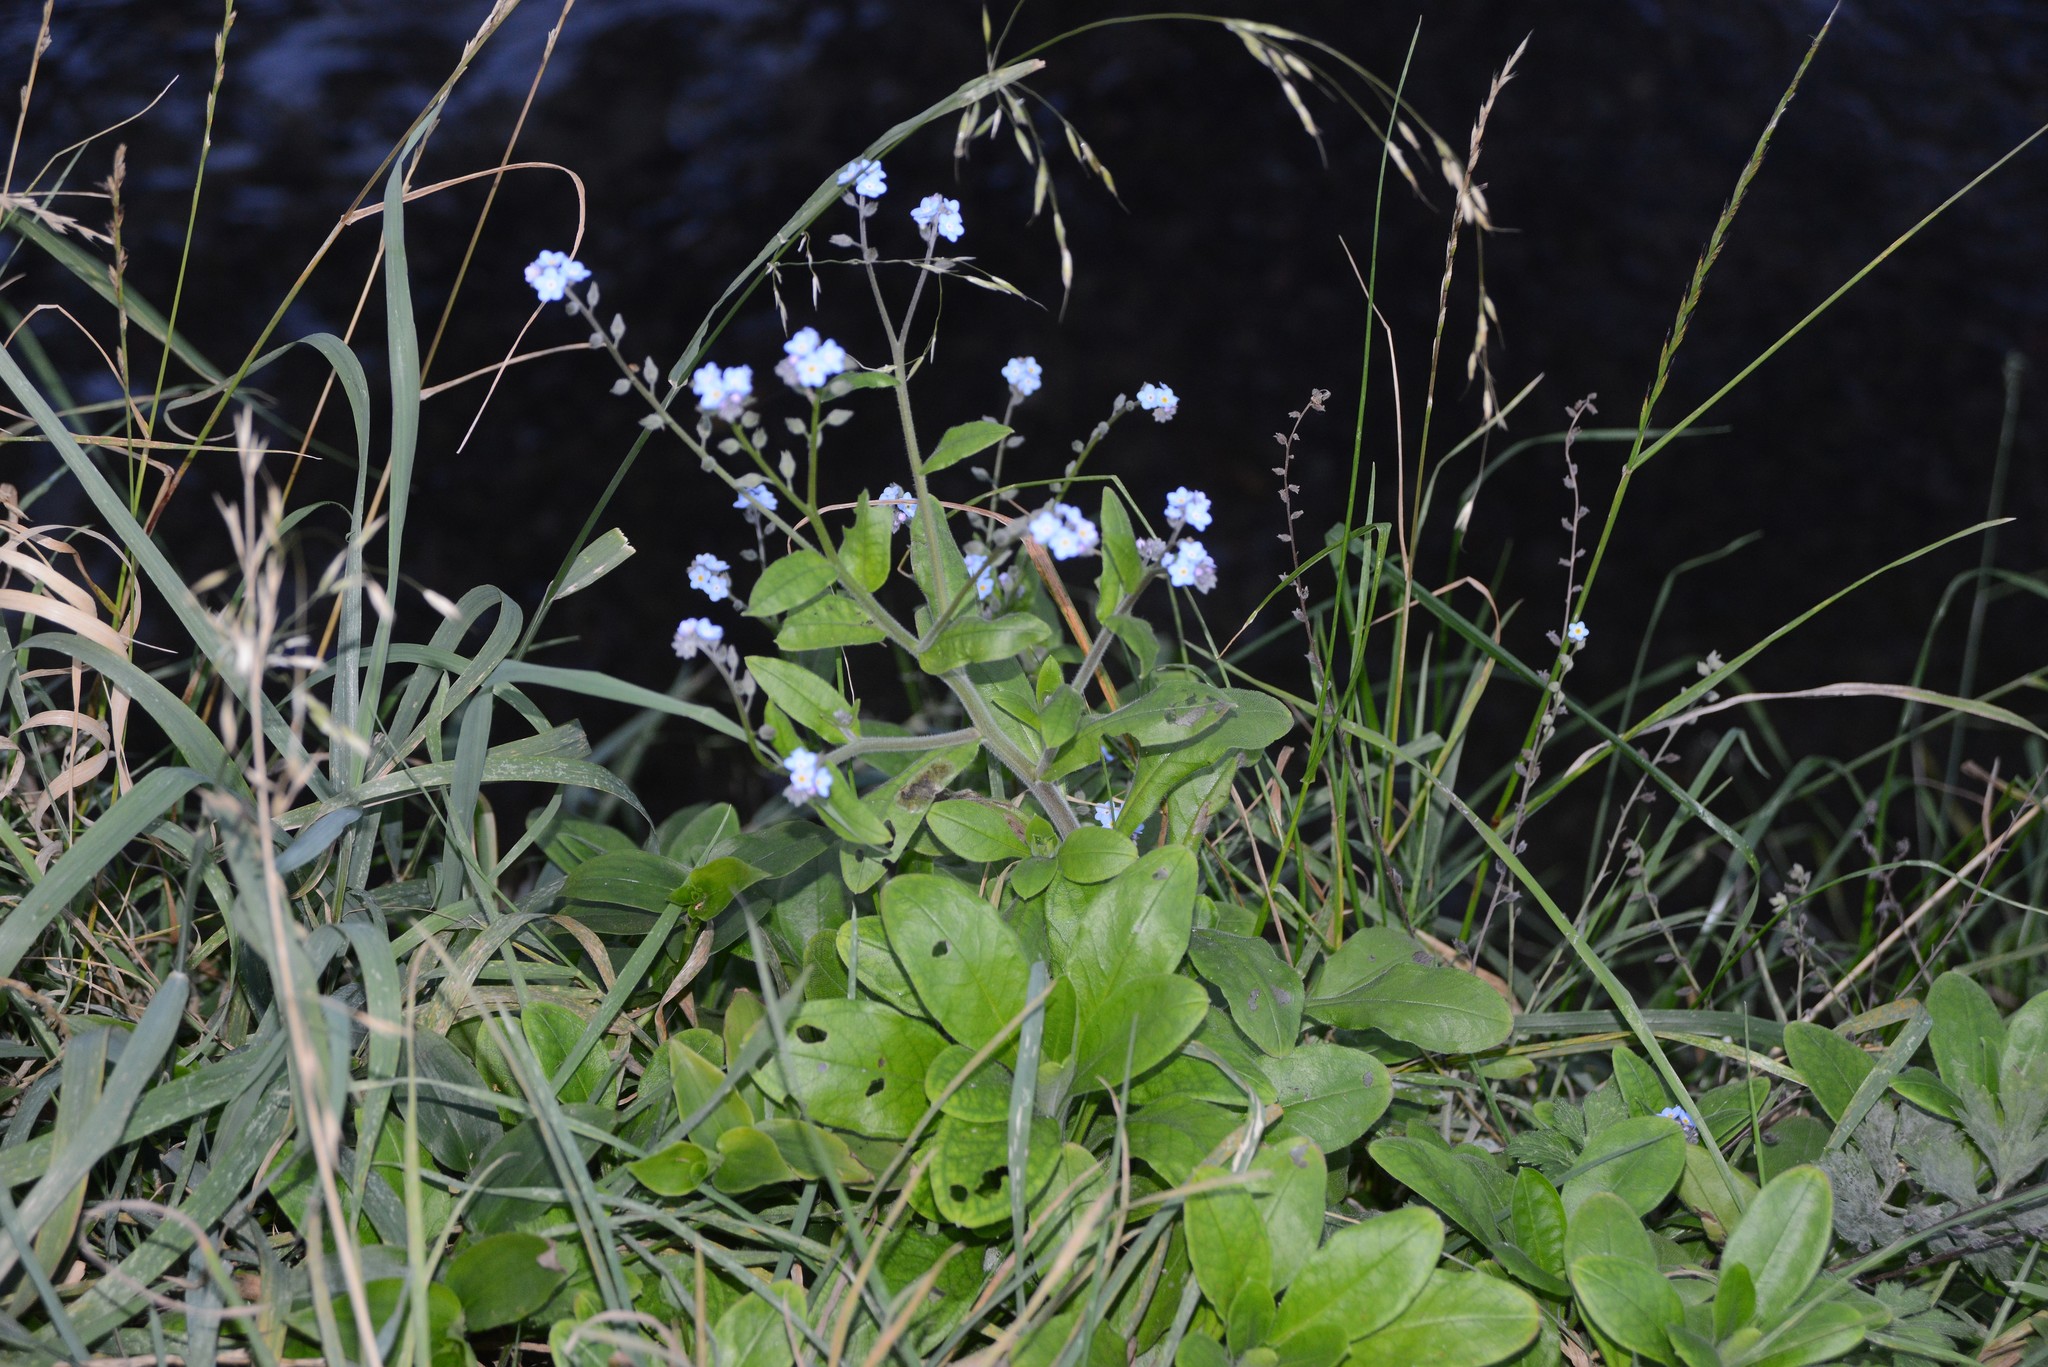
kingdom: Plantae
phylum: Tracheophyta
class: Magnoliopsida
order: Boraginales
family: Boraginaceae
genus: Myosotis
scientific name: Myosotis sylvatica
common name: Wood forget-me-not
